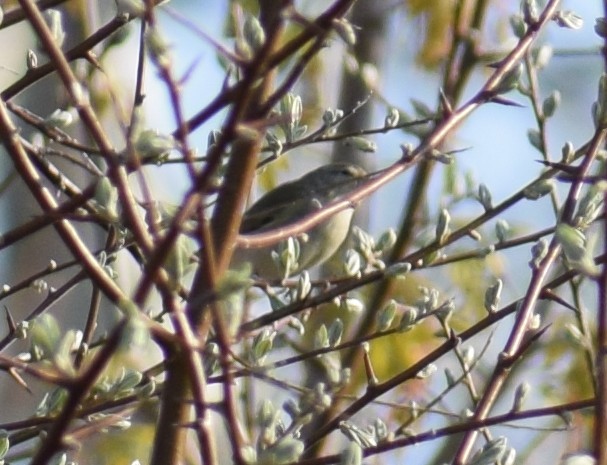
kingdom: Animalia
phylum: Chordata
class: Aves
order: Passeriformes
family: Phylloscopidae
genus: Phylloscopus
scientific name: Phylloscopus
